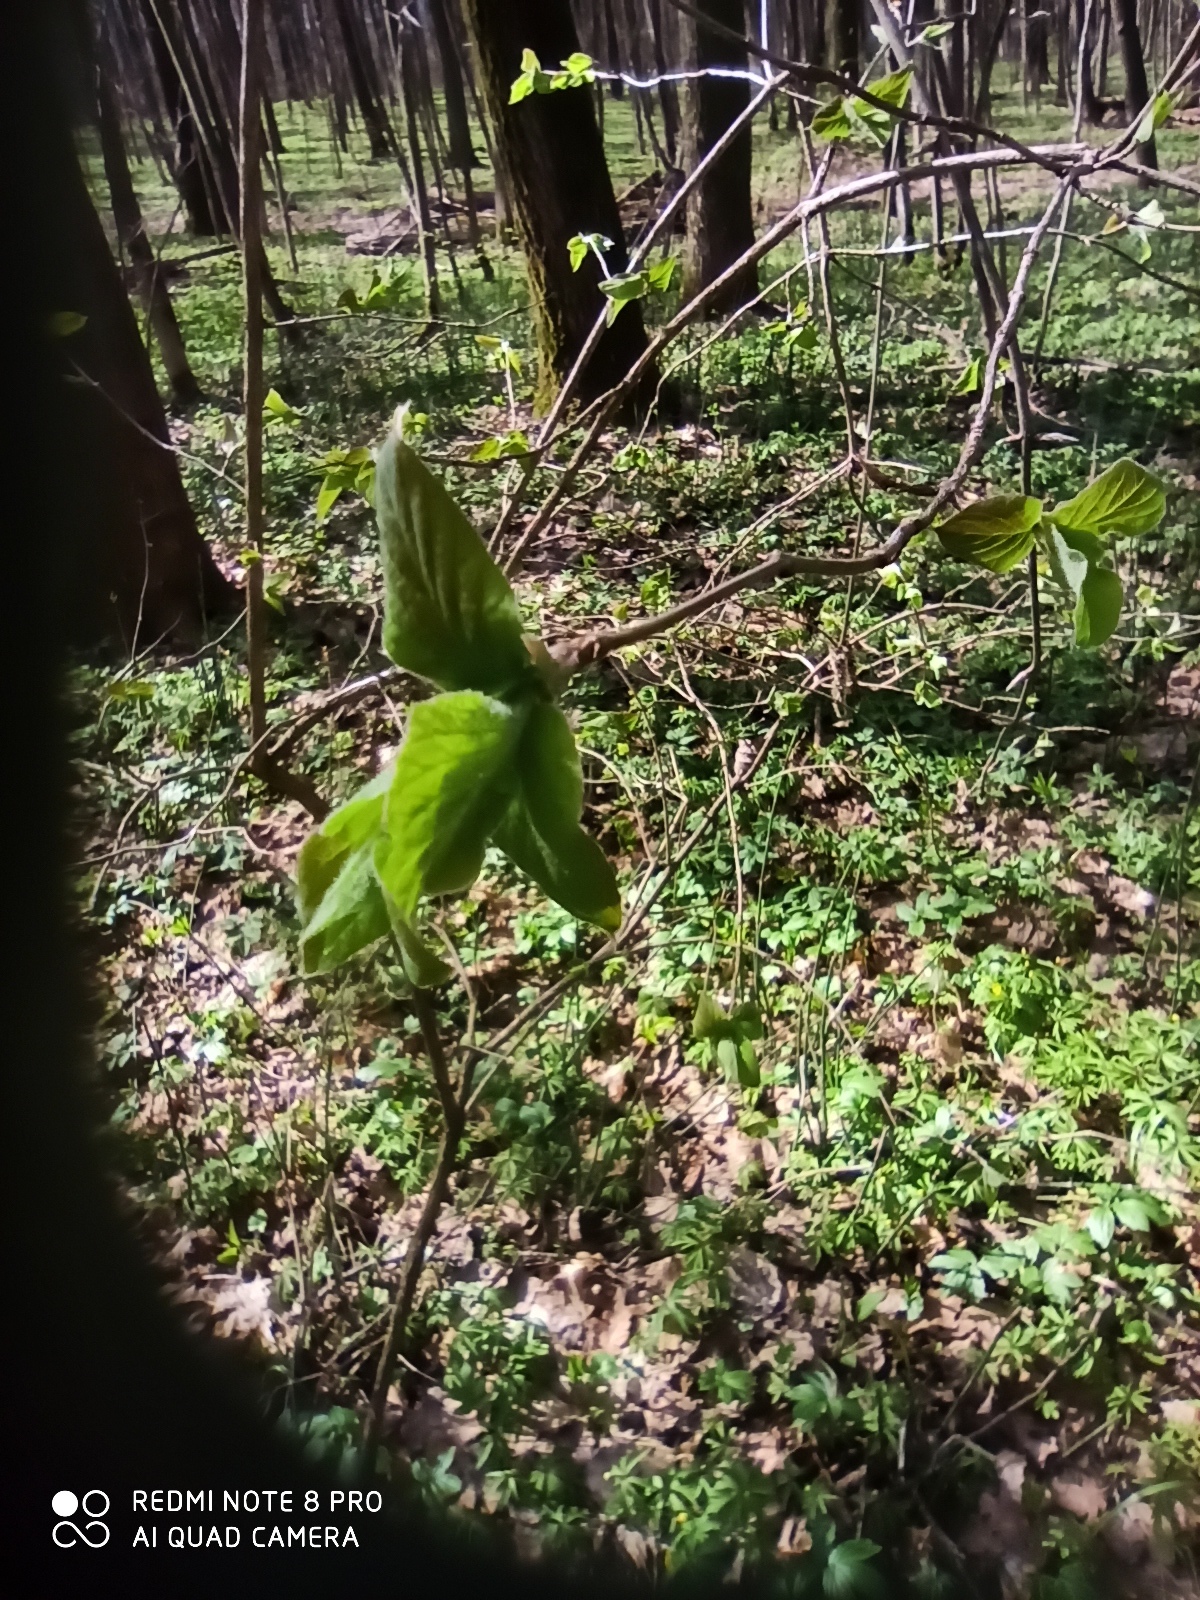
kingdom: Plantae
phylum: Tracheophyta
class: Magnoliopsida
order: Dipsacales
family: Caprifoliaceae
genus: Lonicera
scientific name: Lonicera xylosteum
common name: Fly honeysuckle
